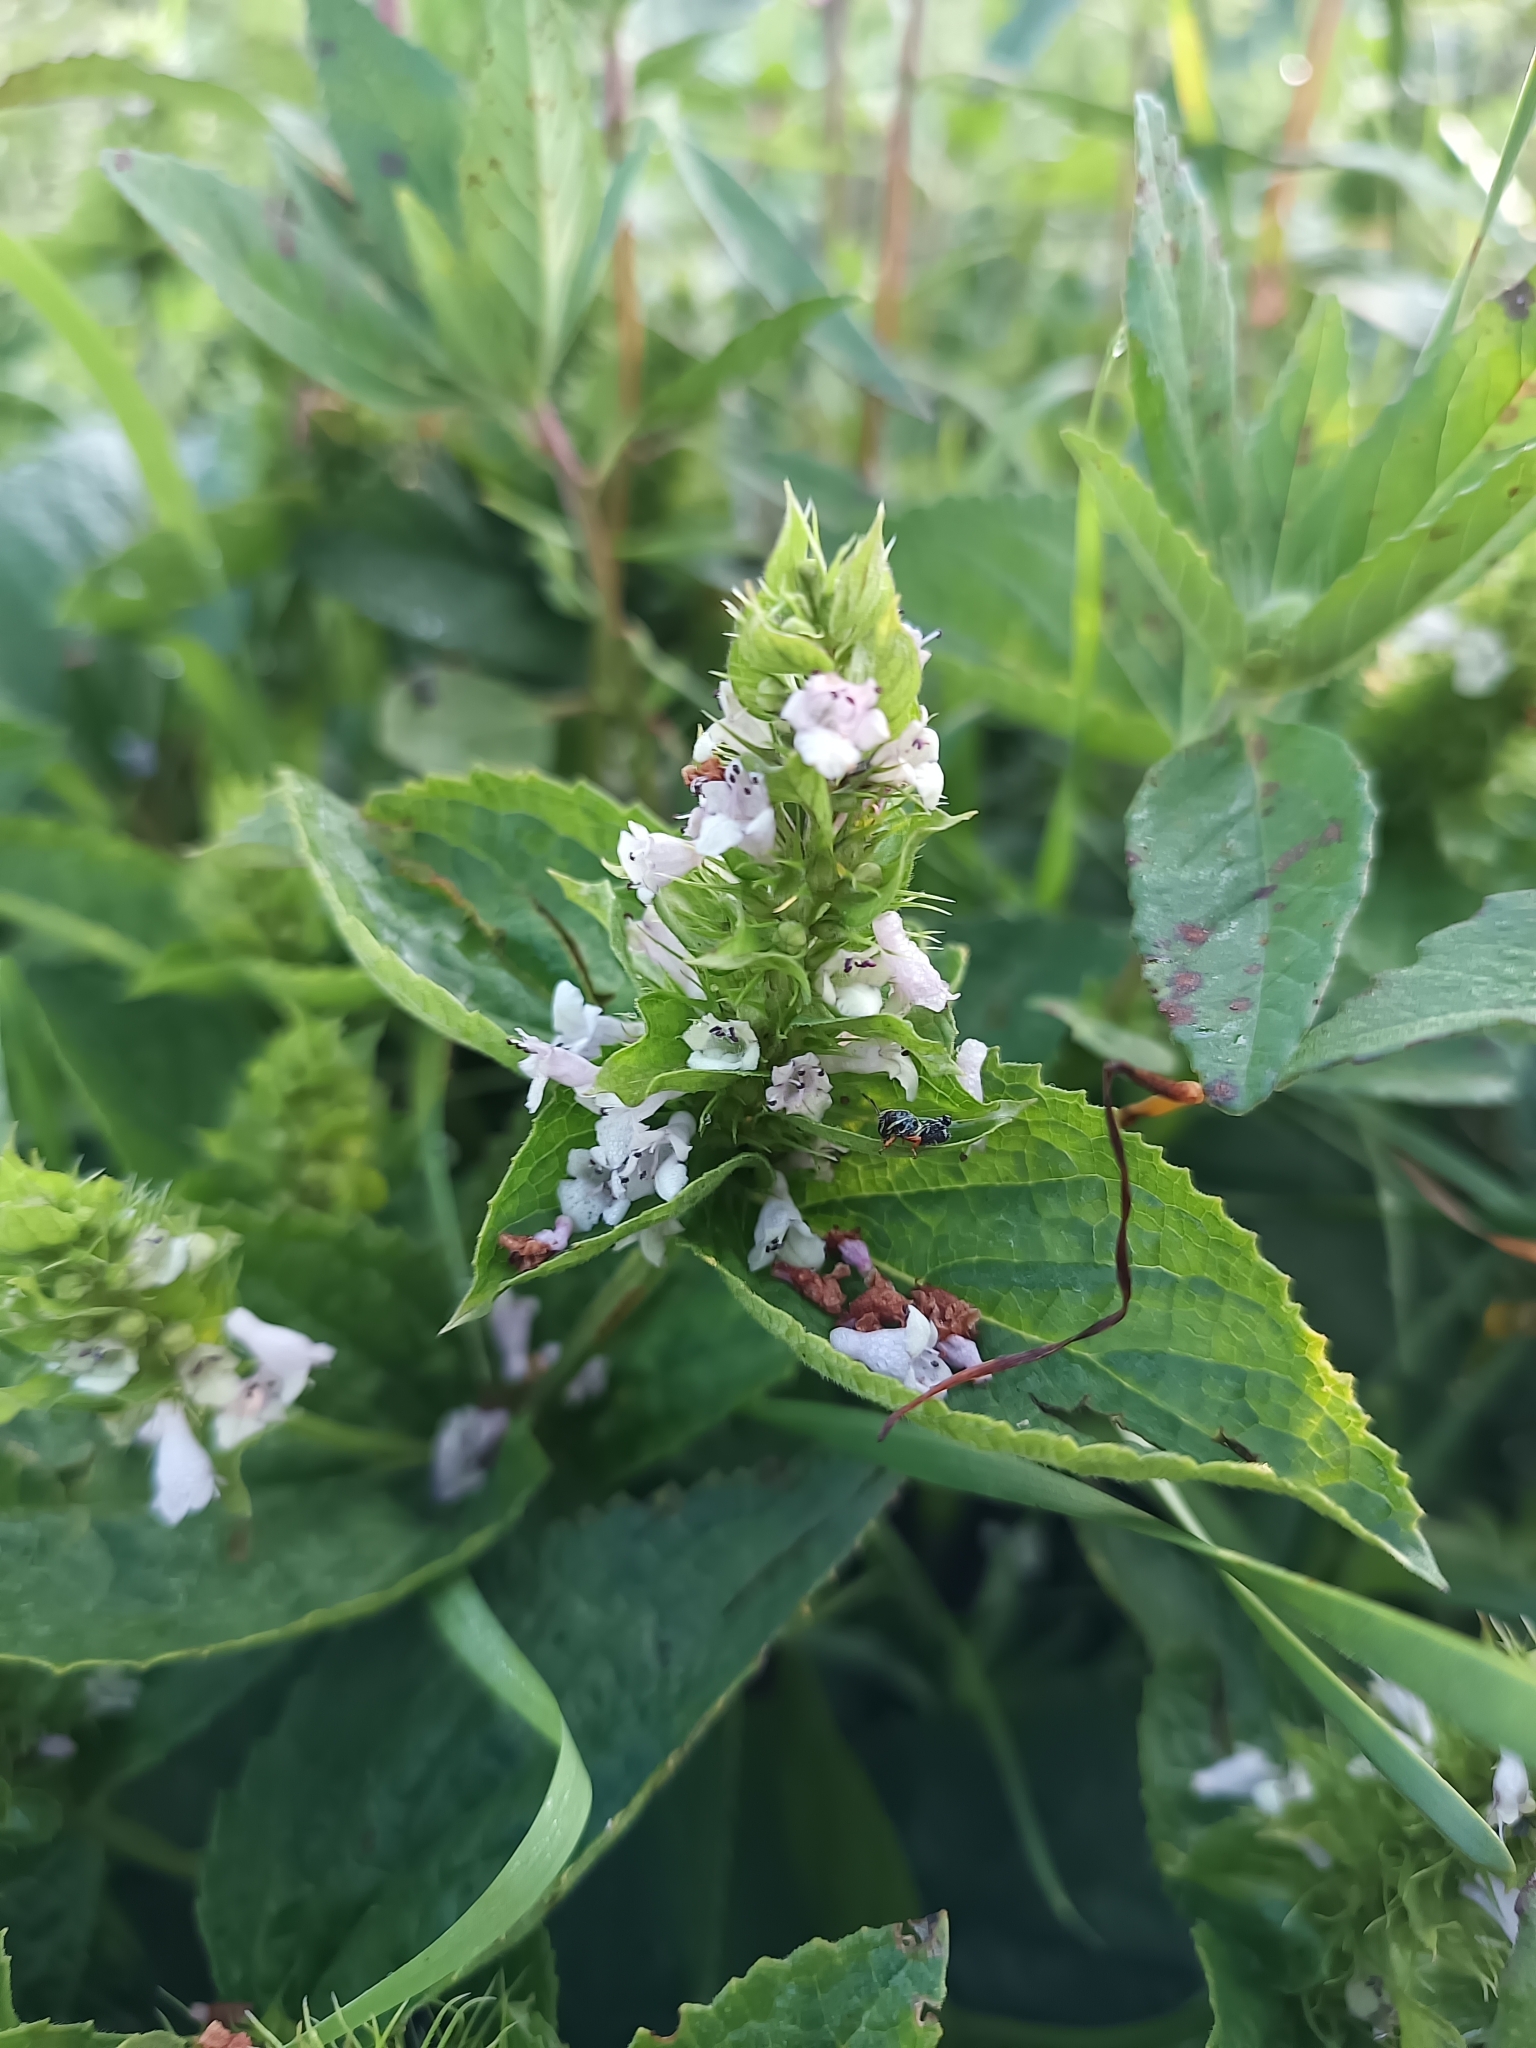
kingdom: Plantae
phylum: Tracheophyta
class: Magnoliopsida
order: Lamiales
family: Lamiaceae
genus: Lepechinia
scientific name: Lepechinia caulescens
